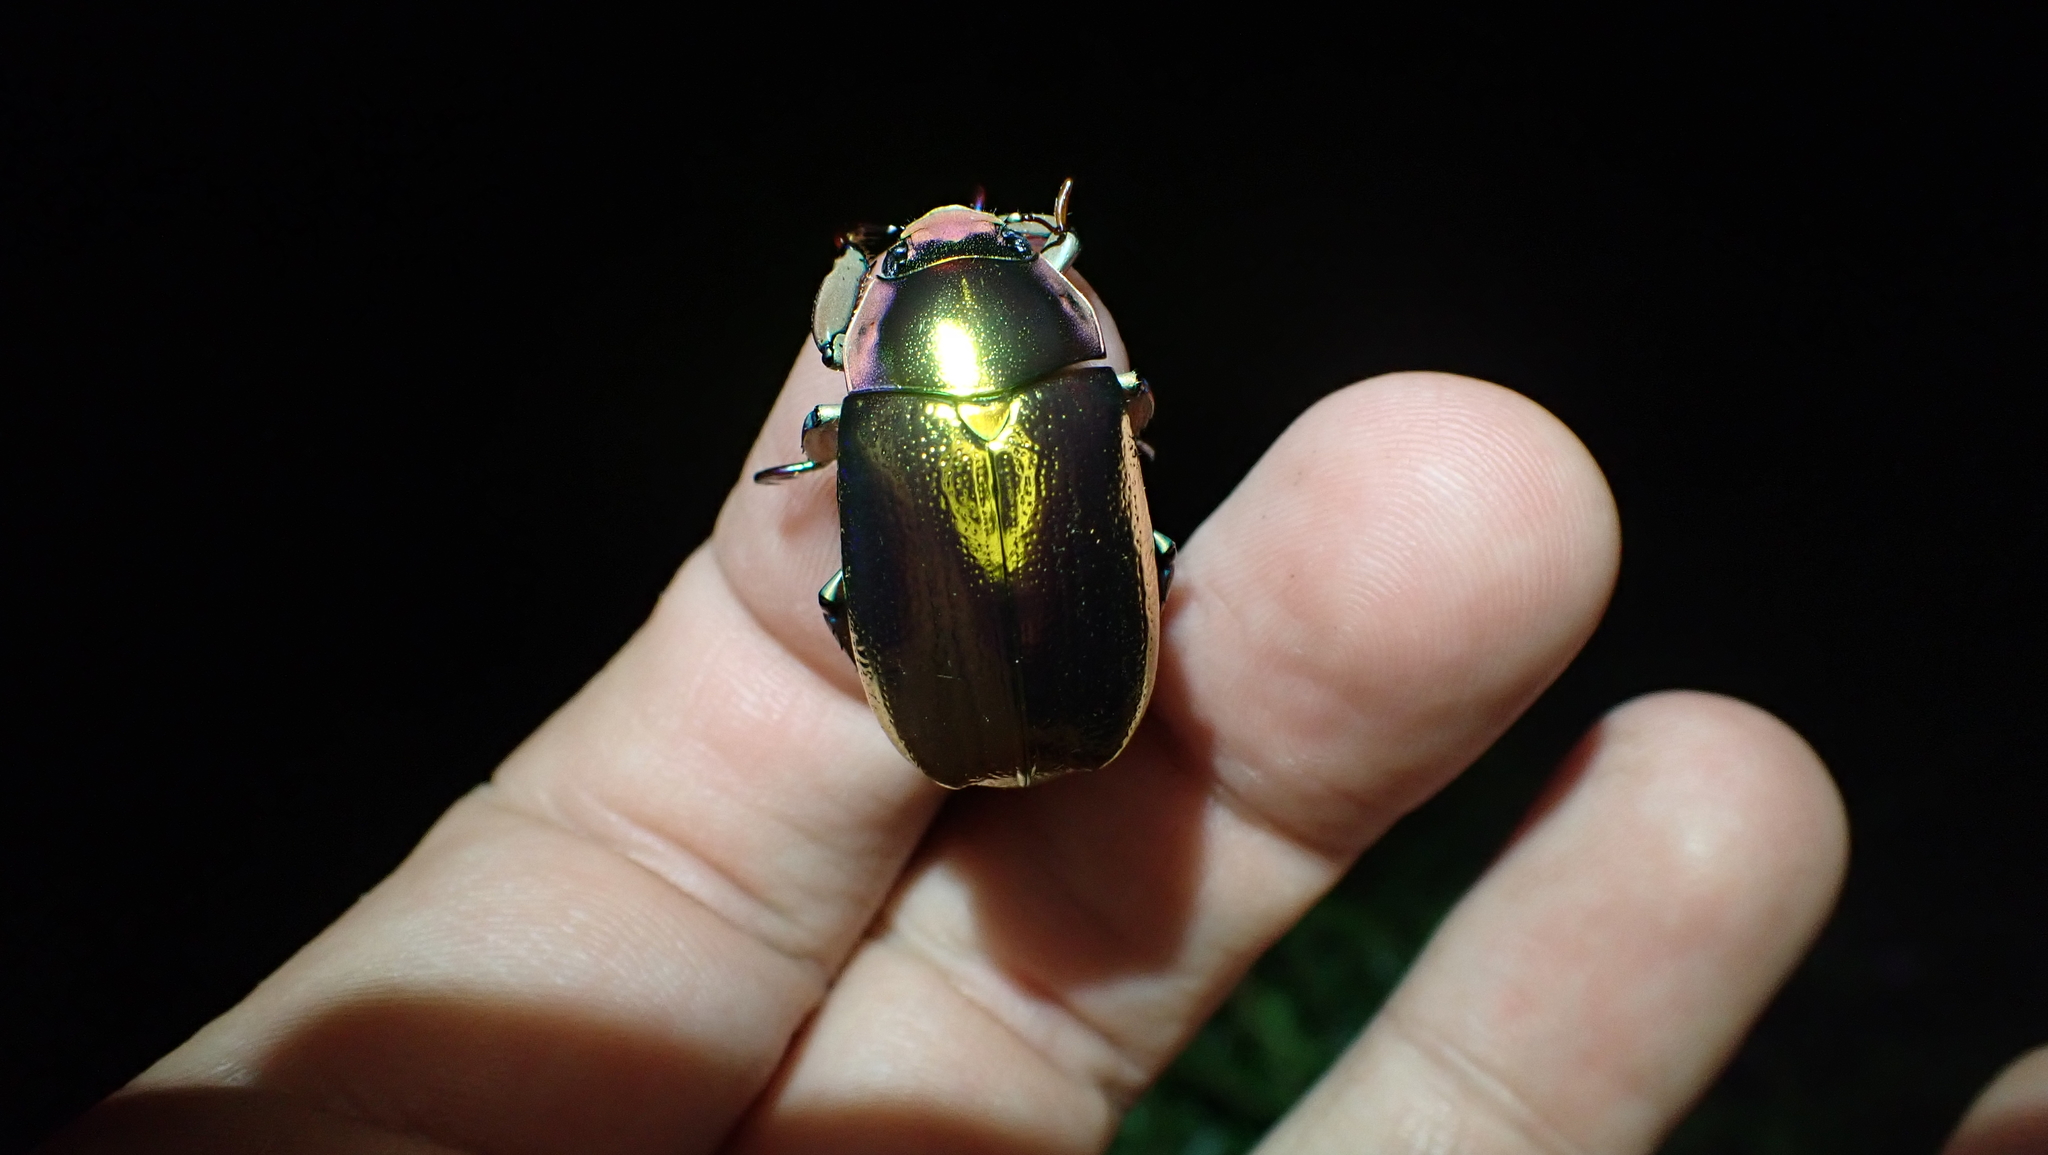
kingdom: Animalia
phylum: Arthropoda
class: Insecta
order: Coleoptera
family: Scarabaeidae
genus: Chrysina
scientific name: Chrysina aurigans
